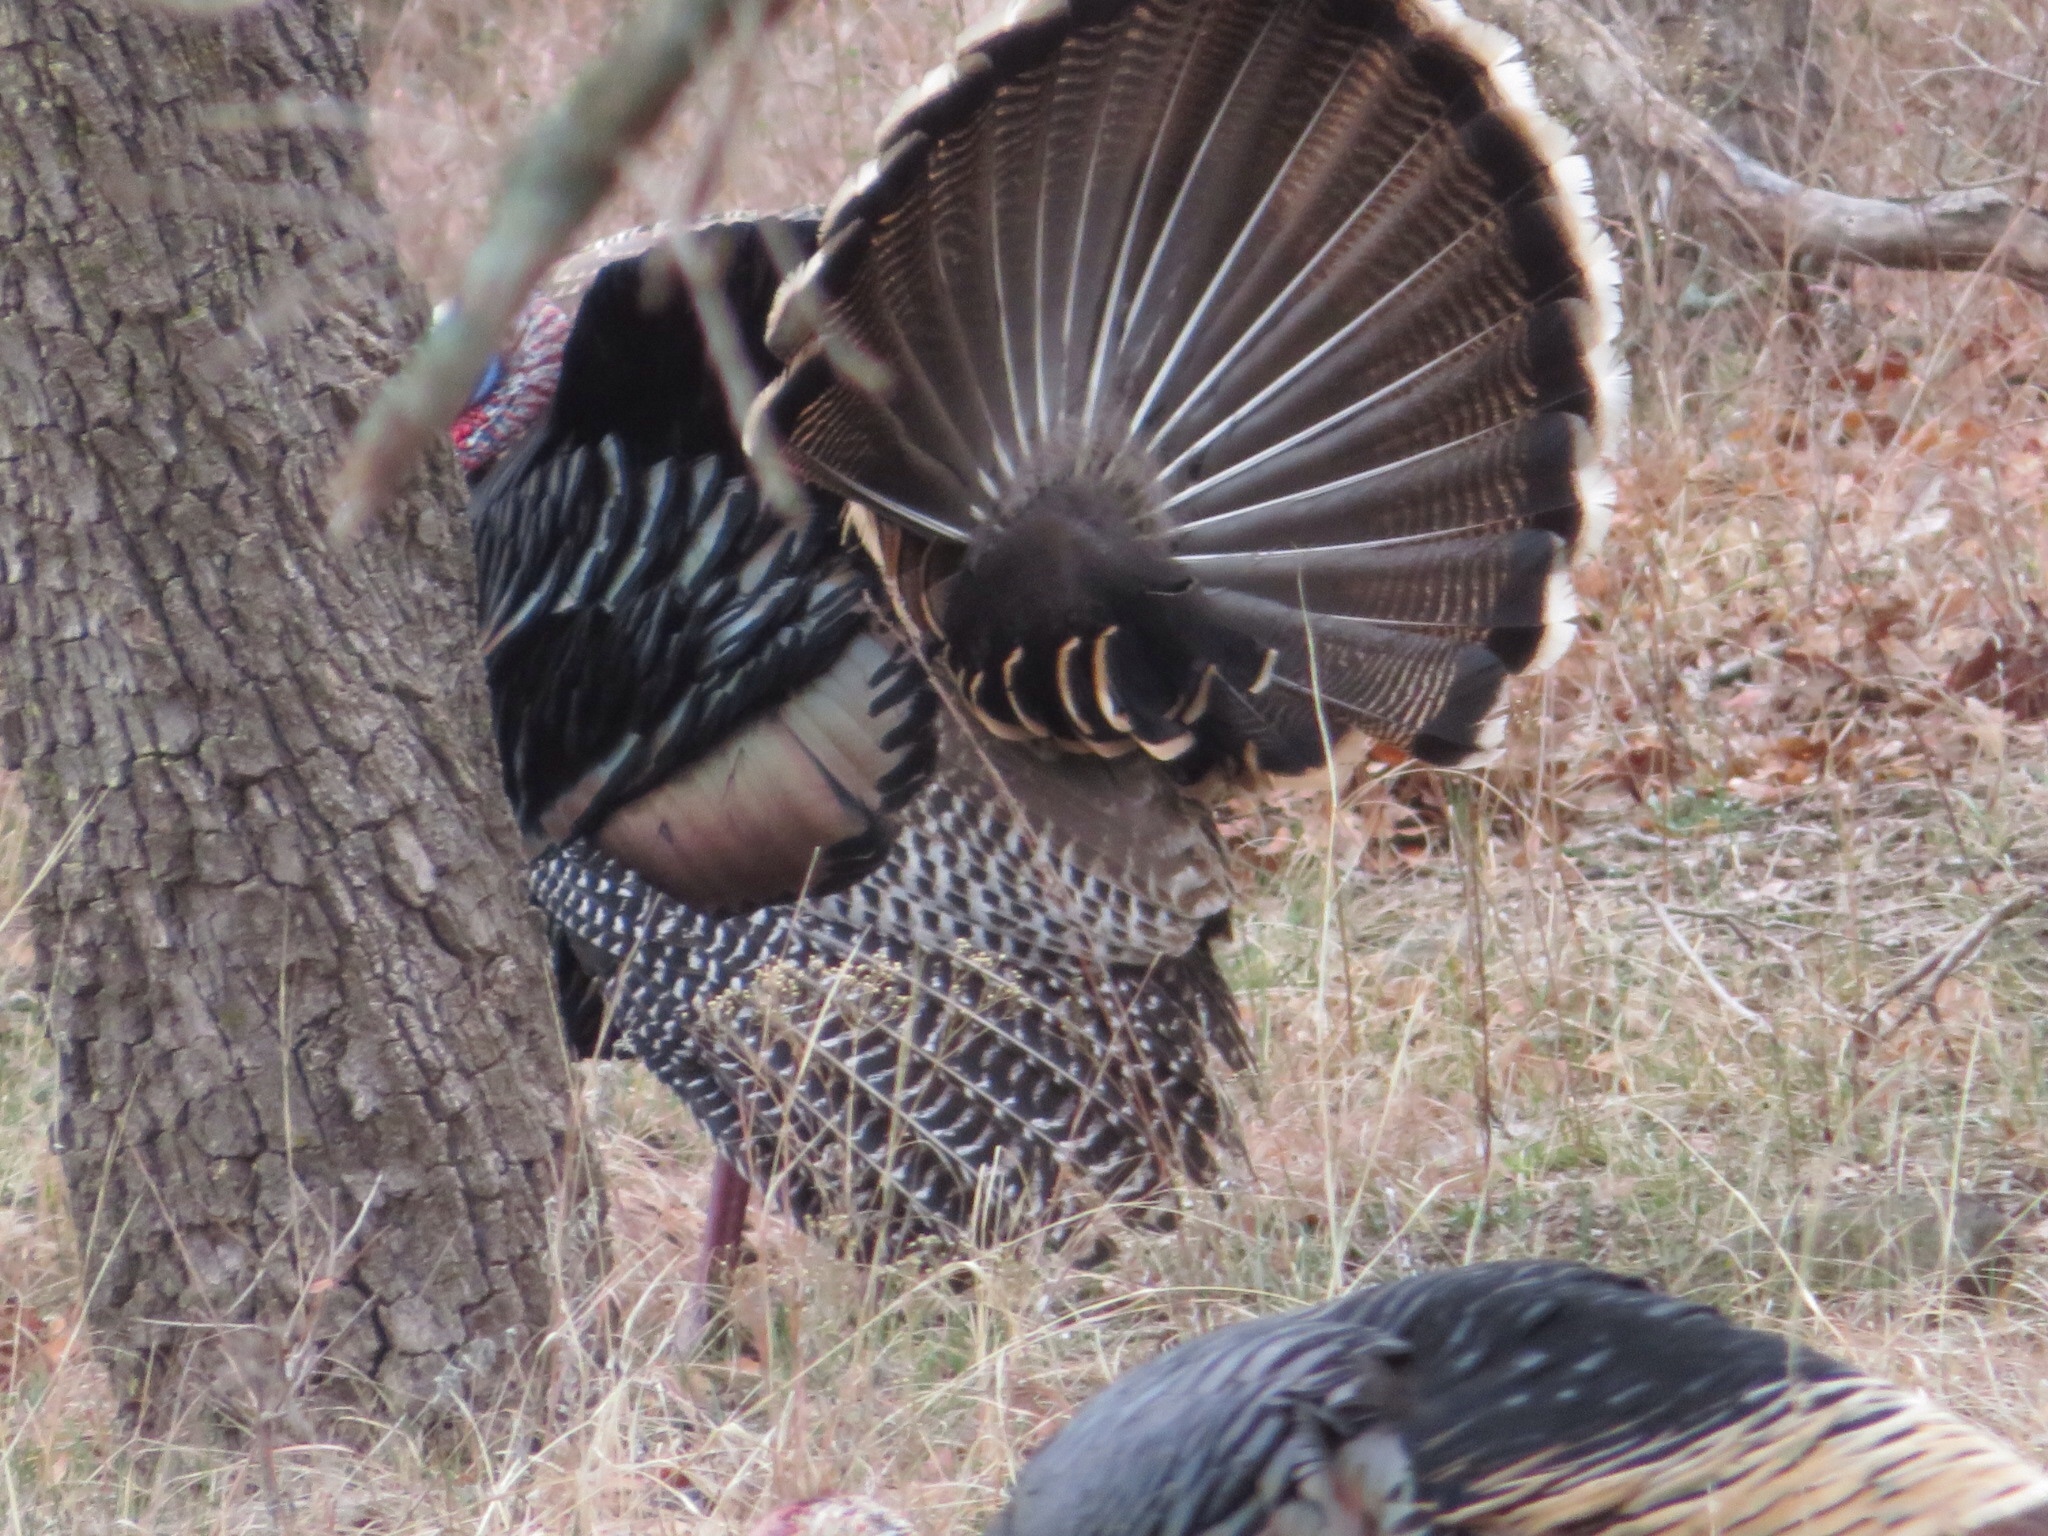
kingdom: Animalia
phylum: Chordata
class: Aves
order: Galliformes
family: Phasianidae
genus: Meleagris
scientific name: Meleagris gallopavo
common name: Wild turkey
